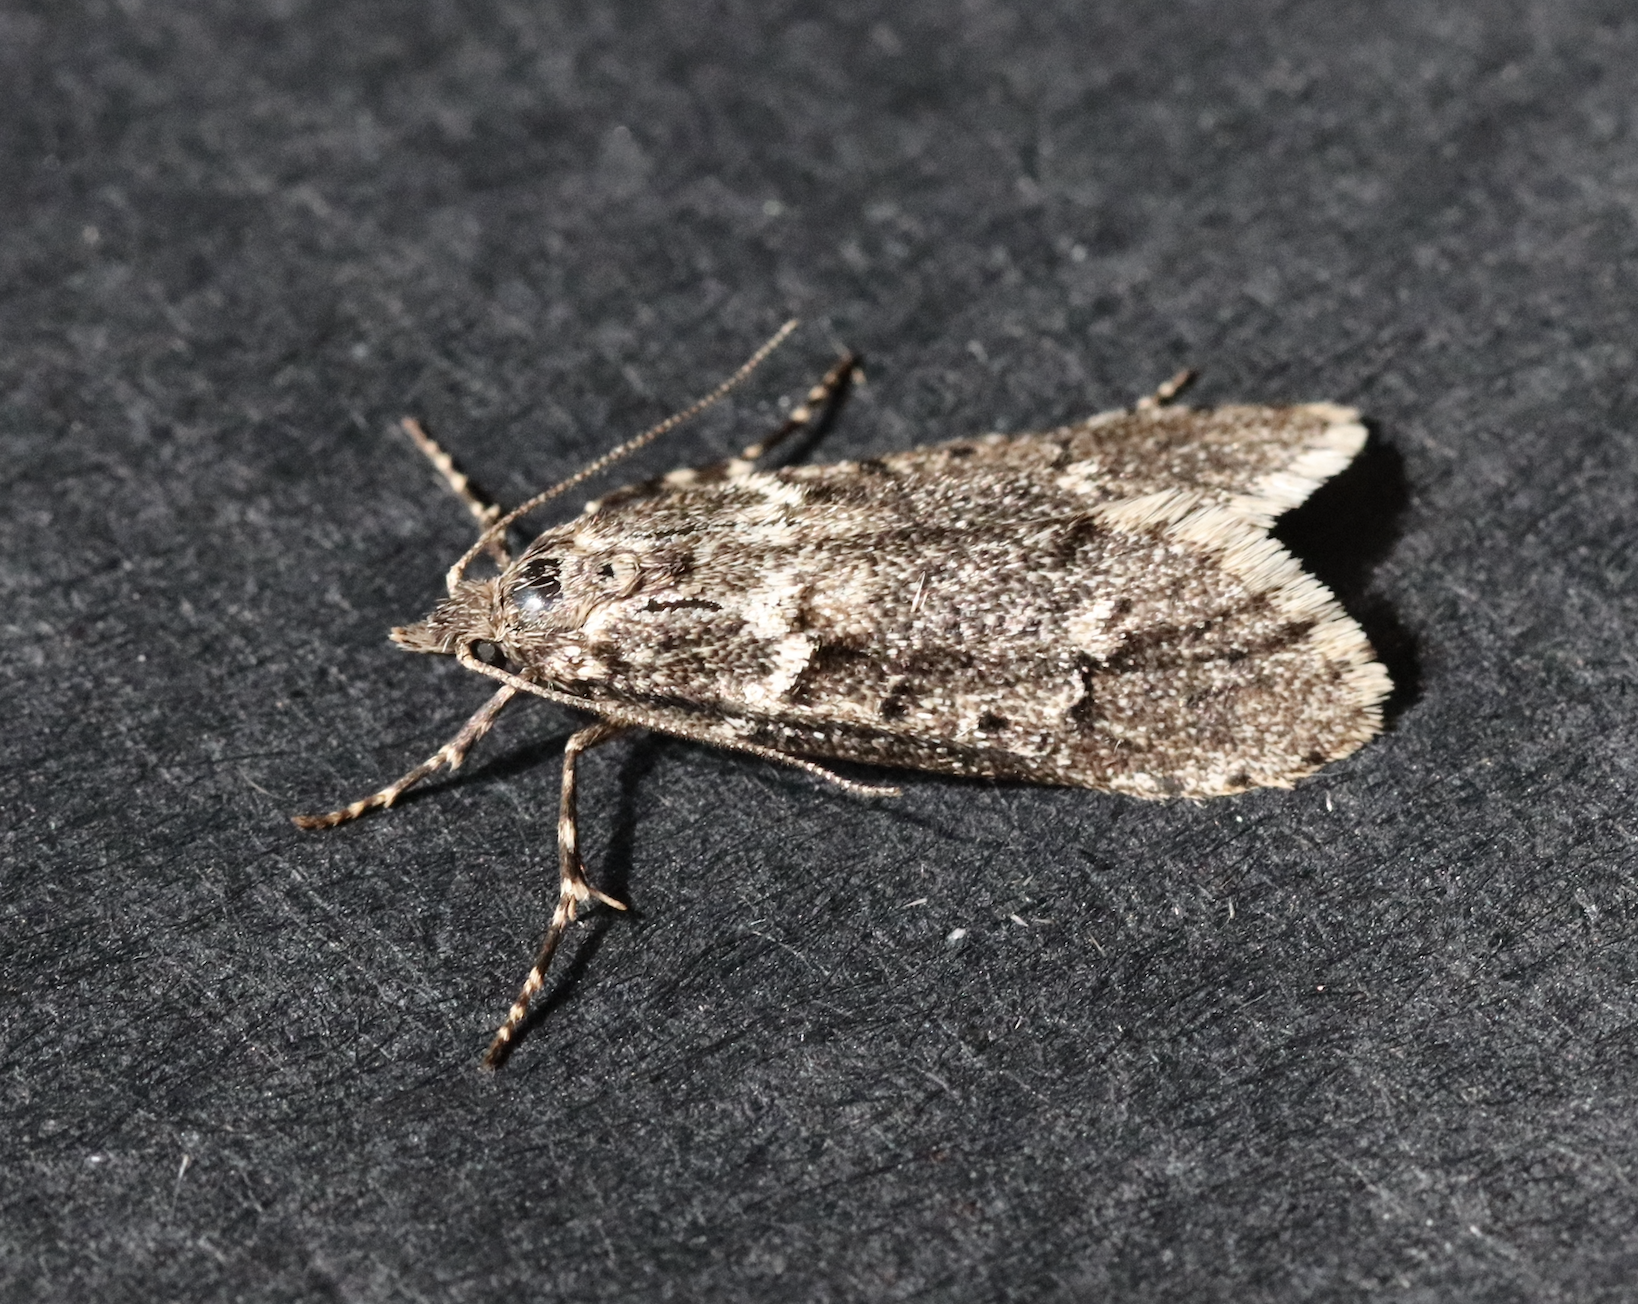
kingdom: Animalia
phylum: Arthropoda
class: Insecta
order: Lepidoptera
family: Lypusidae
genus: Diurnea
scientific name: Diurnea fagella
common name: March tubic
